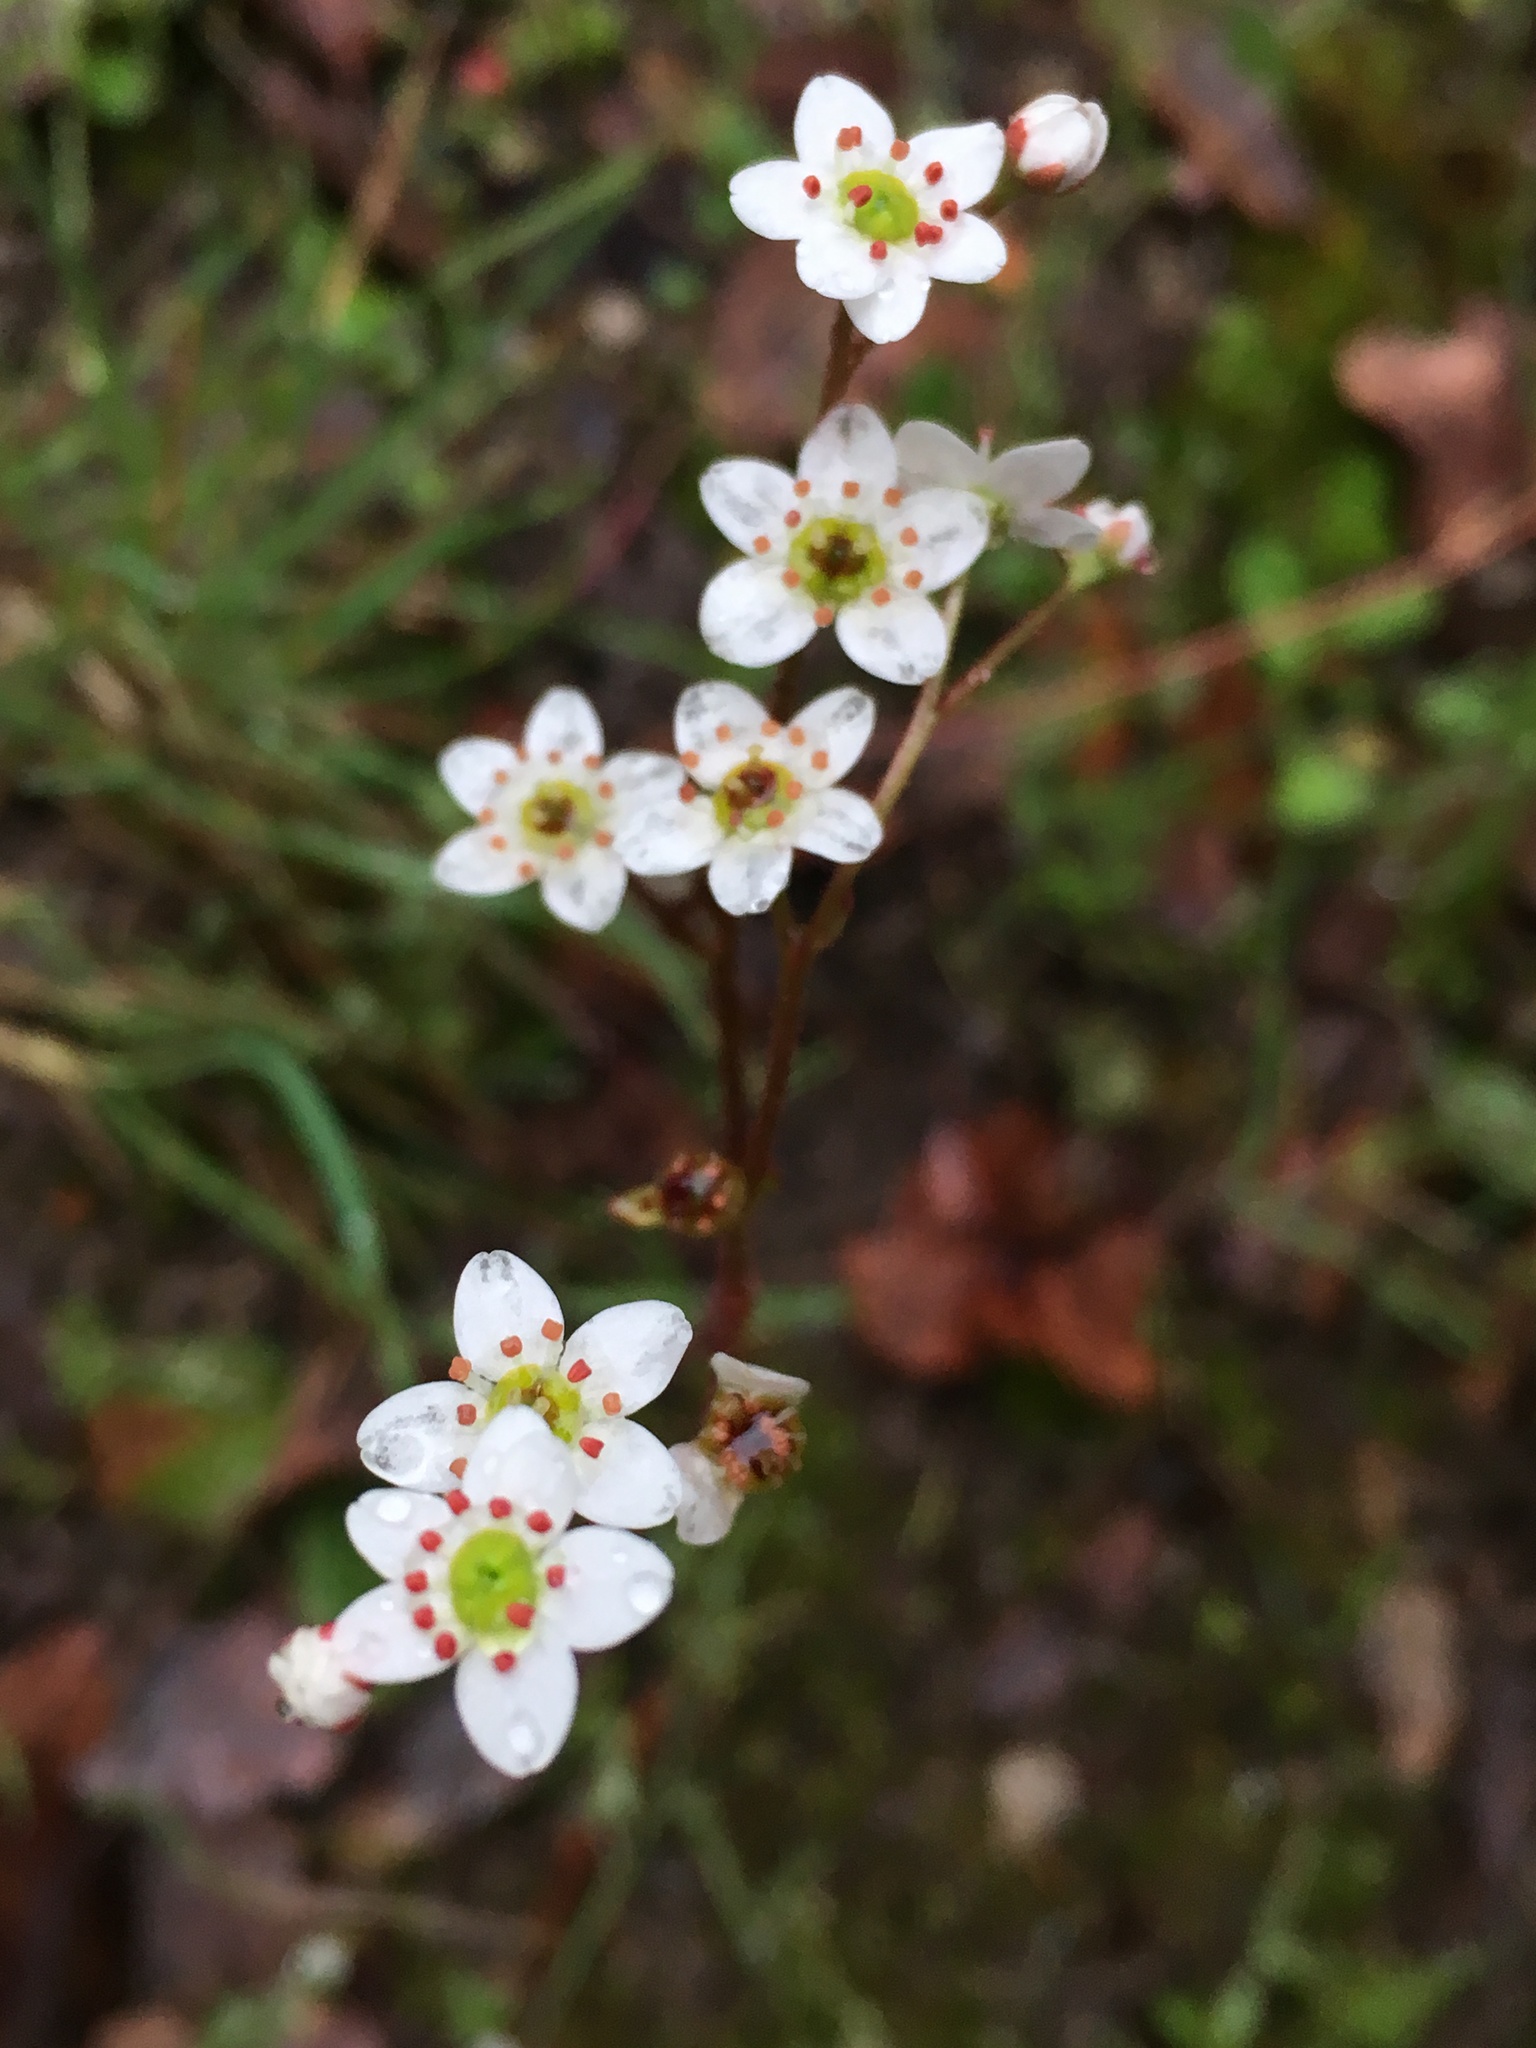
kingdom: Plantae
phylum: Tracheophyta
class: Magnoliopsida
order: Saxifragales
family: Saxifragaceae
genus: Micranthes
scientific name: Micranthes californica
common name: California saxifrage
